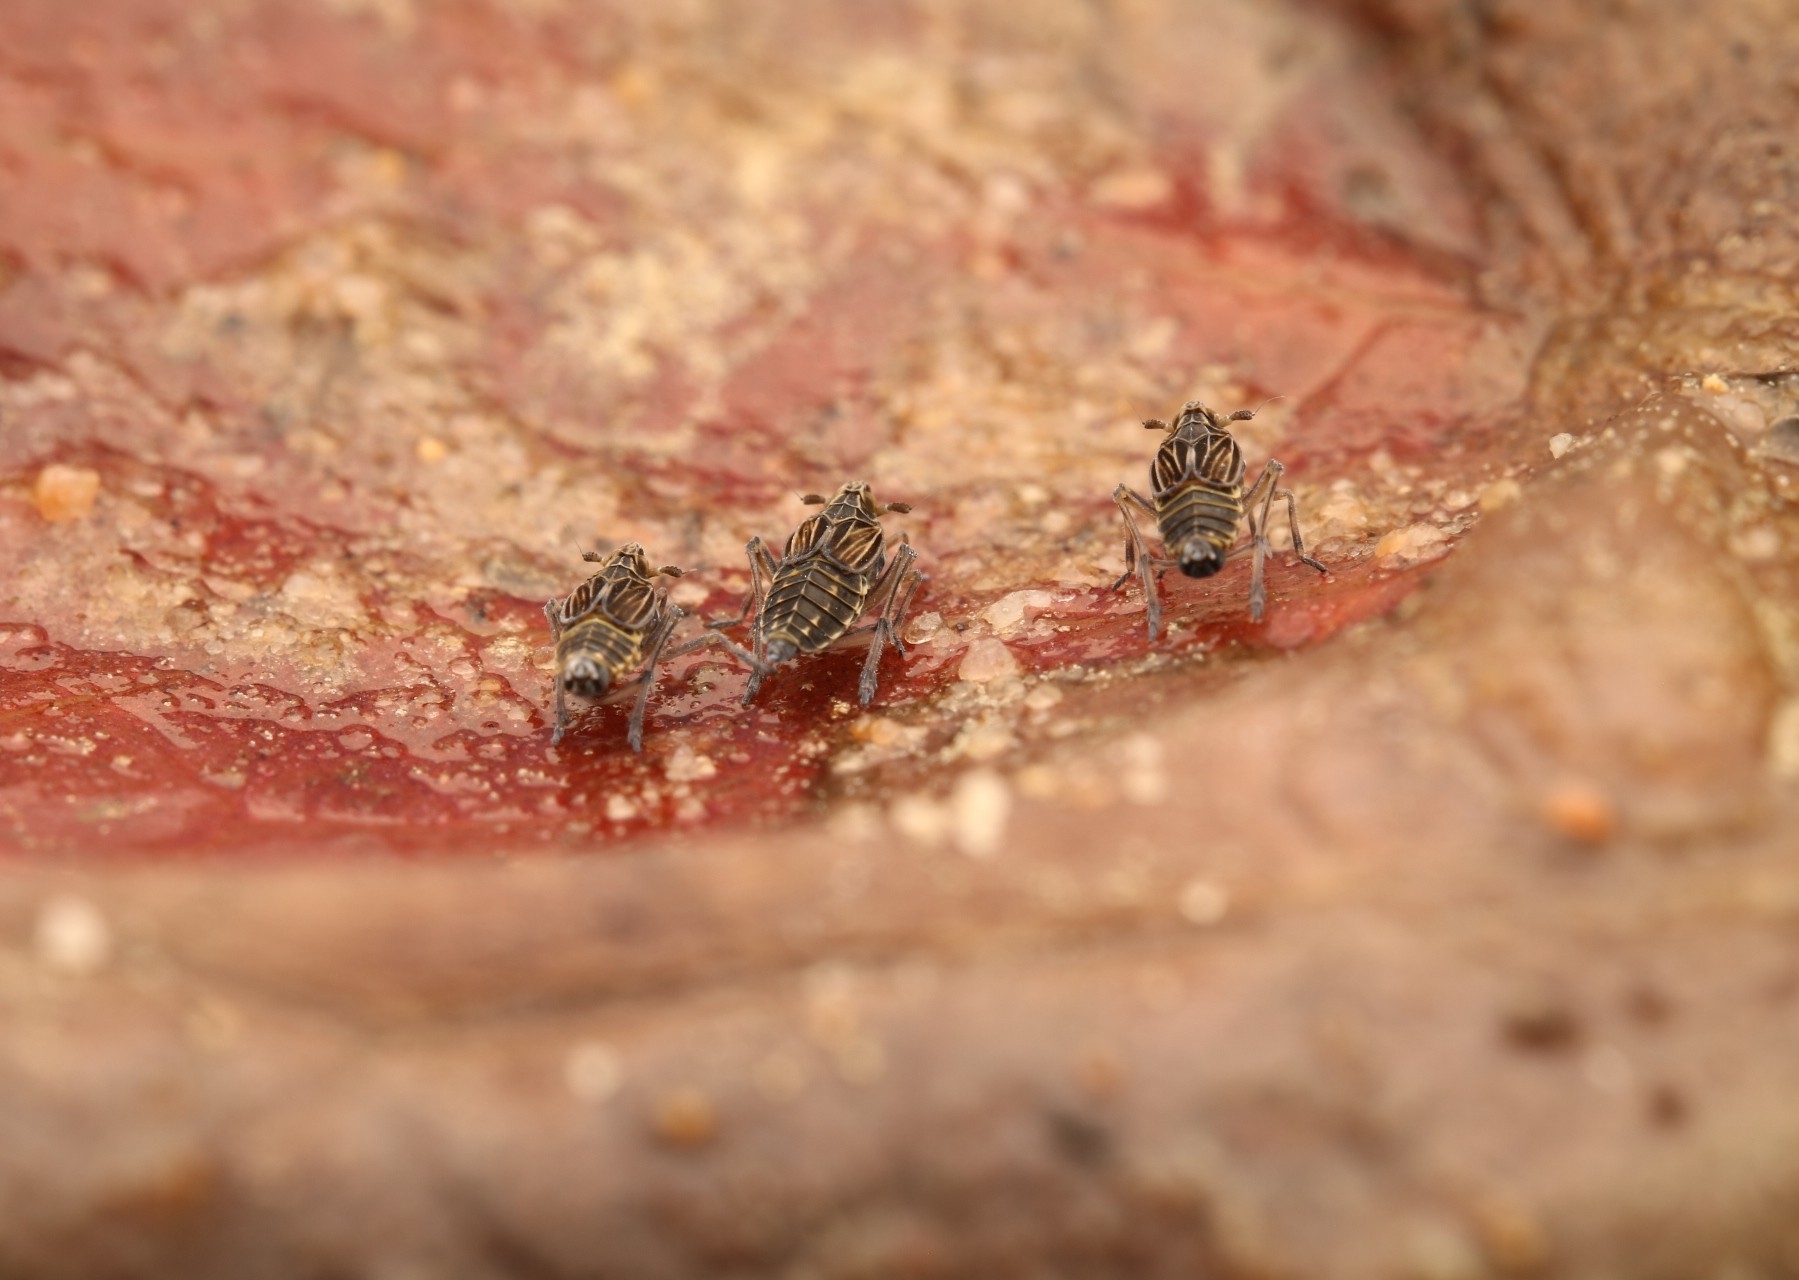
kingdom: Animalia
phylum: Arthropoda
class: Insecta
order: Hemiptera
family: Delphacidae
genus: Megamelus
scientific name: Megamelus davisi
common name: Planthopper
